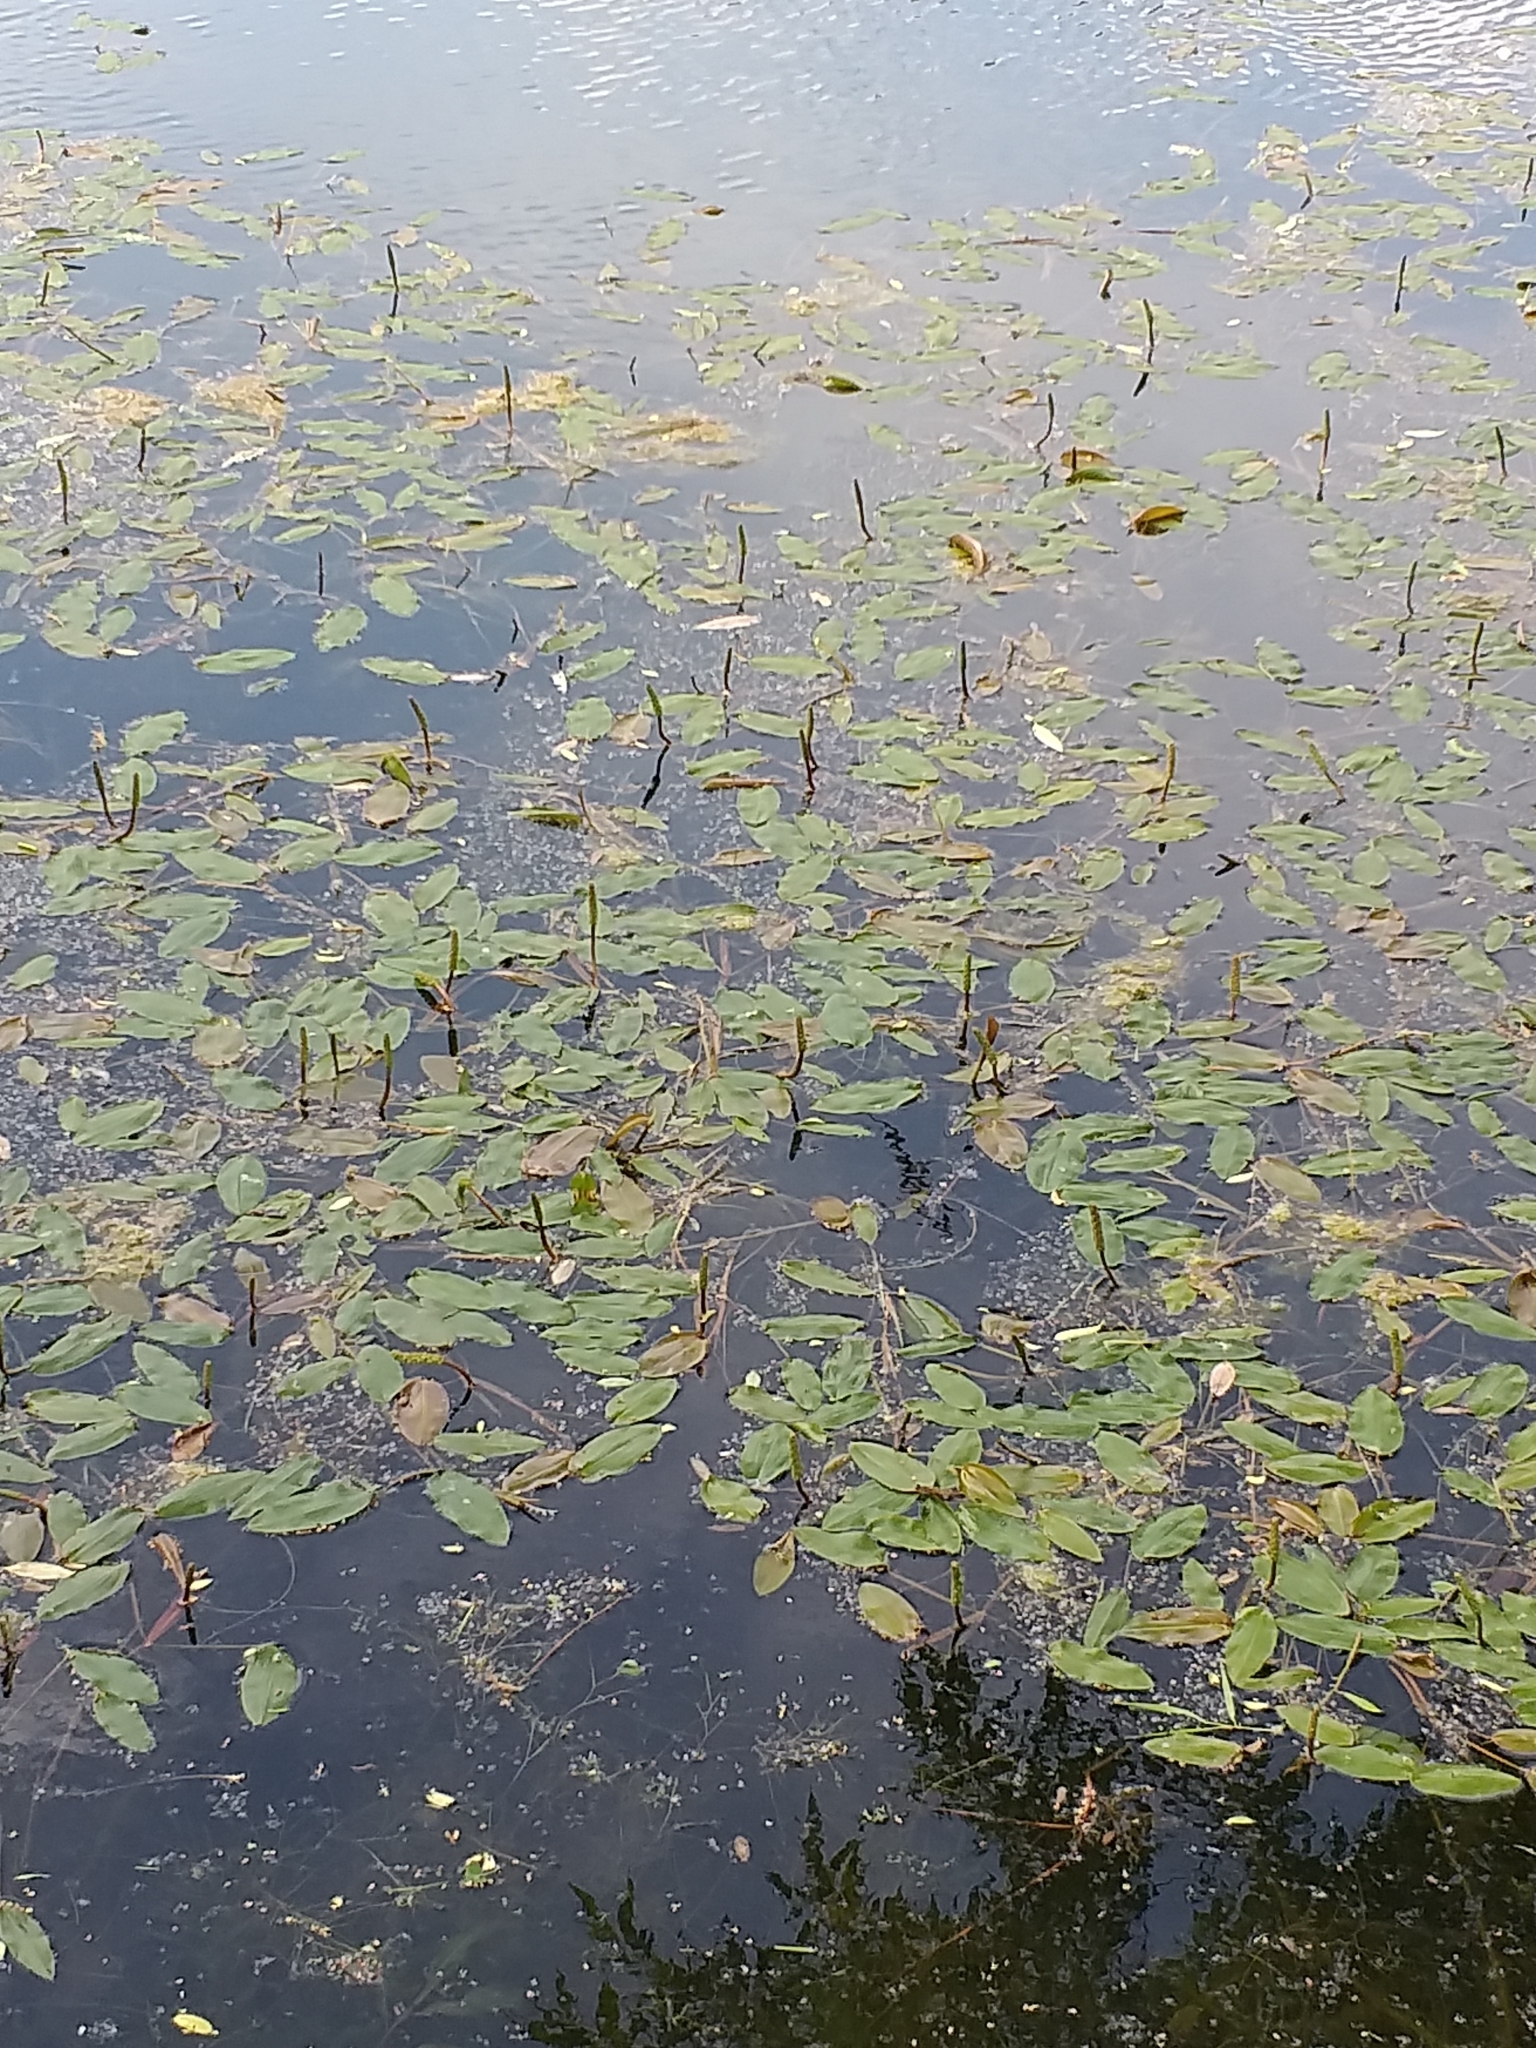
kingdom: Plantae
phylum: Tracheophyta
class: Liliopsida
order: Alismatales
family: Potamogetonaceae
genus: Potamogeton
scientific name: Potamogeton natans
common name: Broad-leaved pondweed
